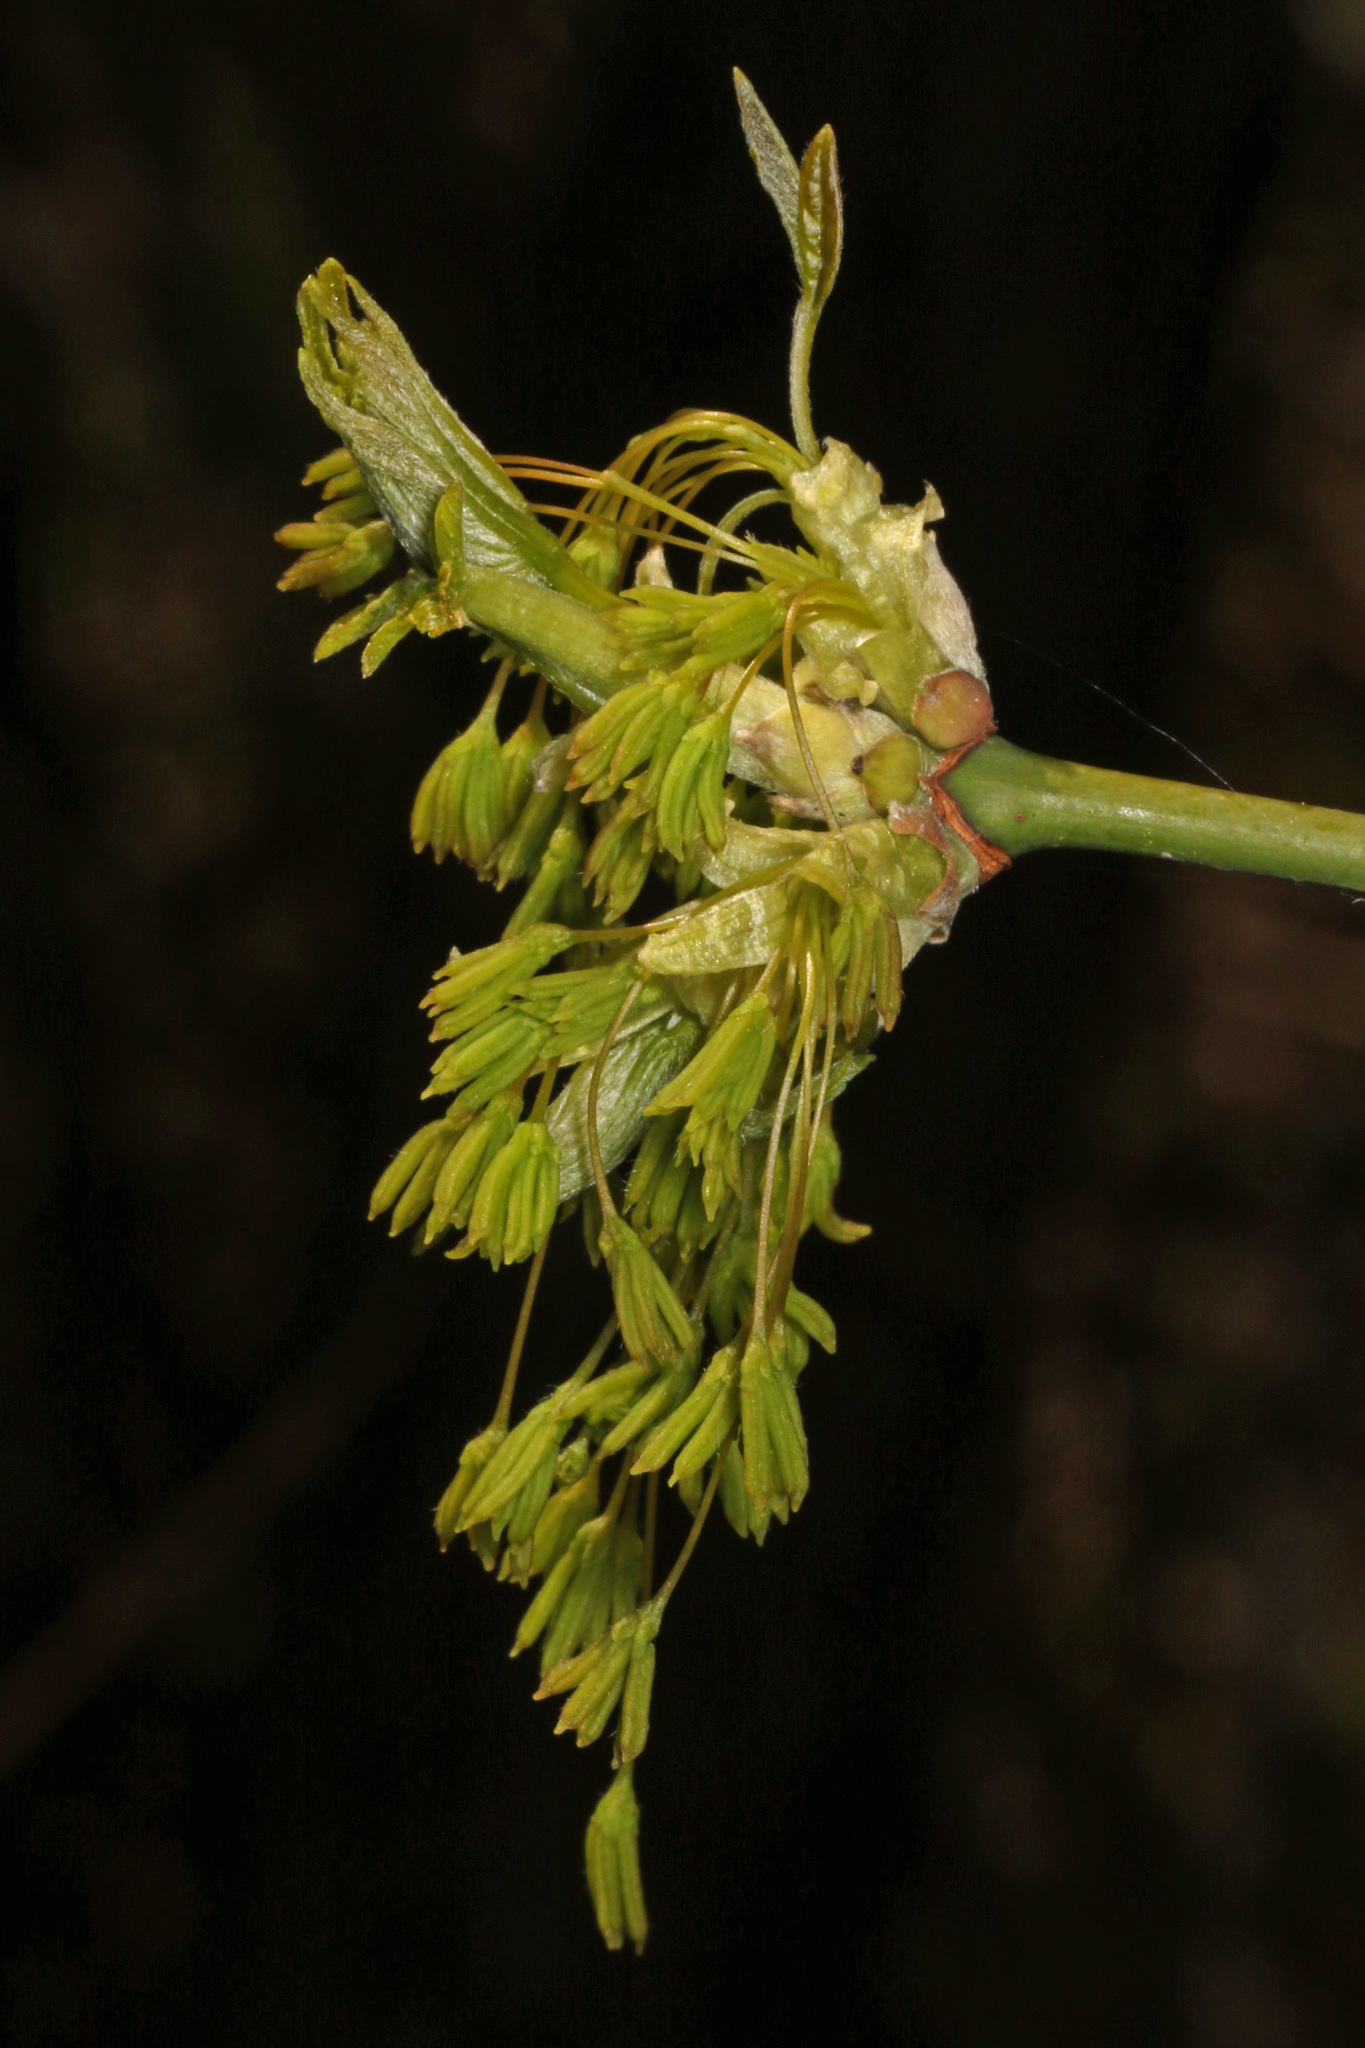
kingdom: Plantae
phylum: Tracheophyta
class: Magnoliopsida
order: Sapindales
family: Sapindaceae
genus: Acer
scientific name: Acer negundo
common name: Ashleaf maple
